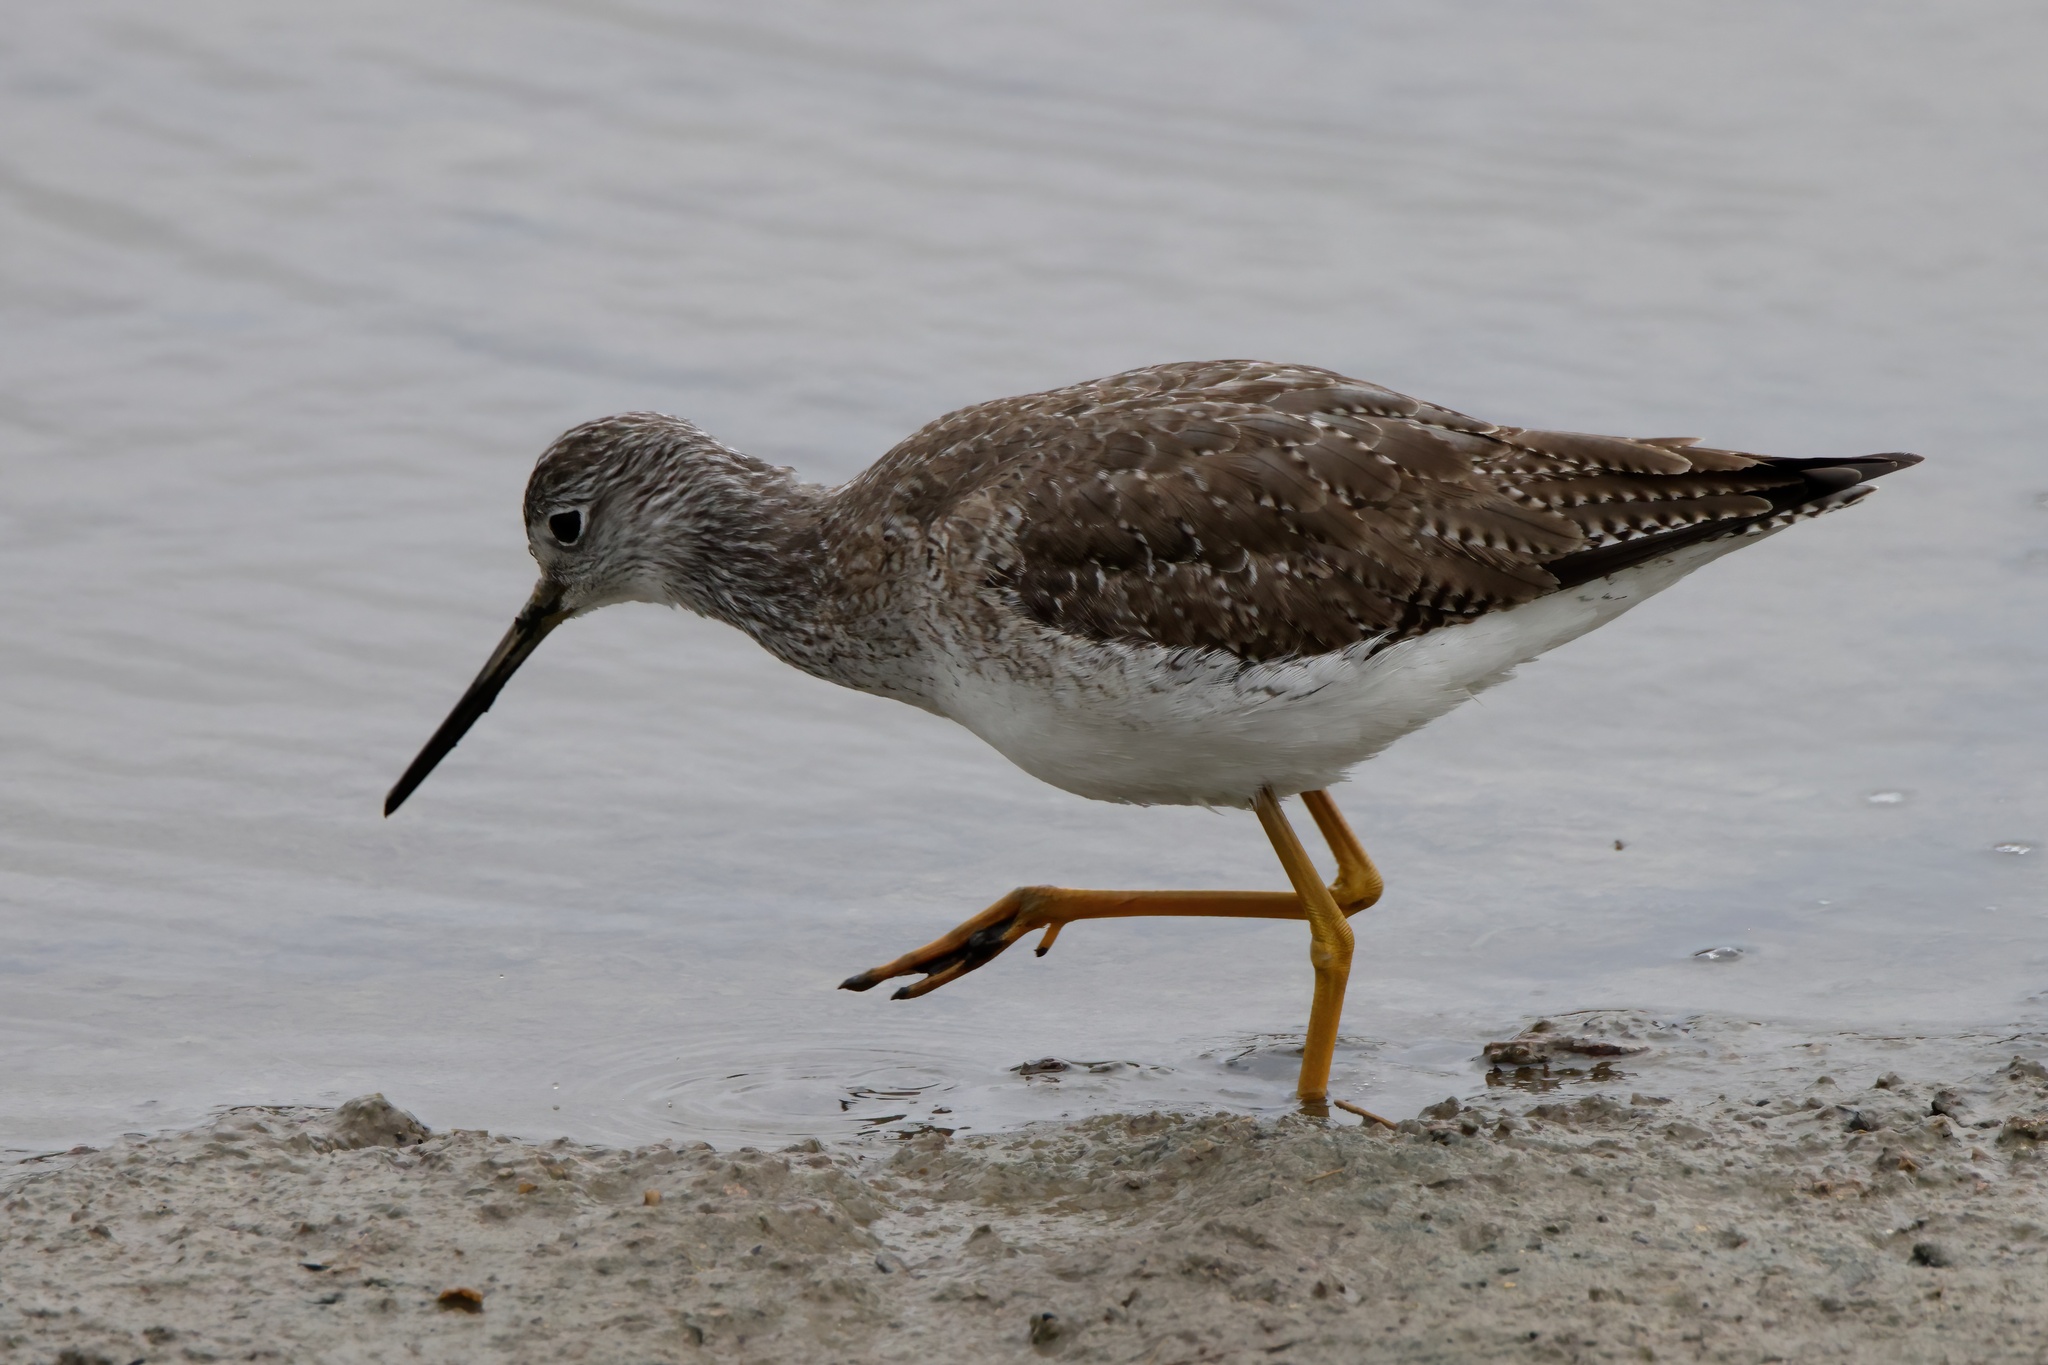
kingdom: Animalia
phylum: Chordata
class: Aves
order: Charadriiformes
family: Scolopacidae
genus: Tringa
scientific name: Tringa melanoleuca
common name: Greater yellowlegs
